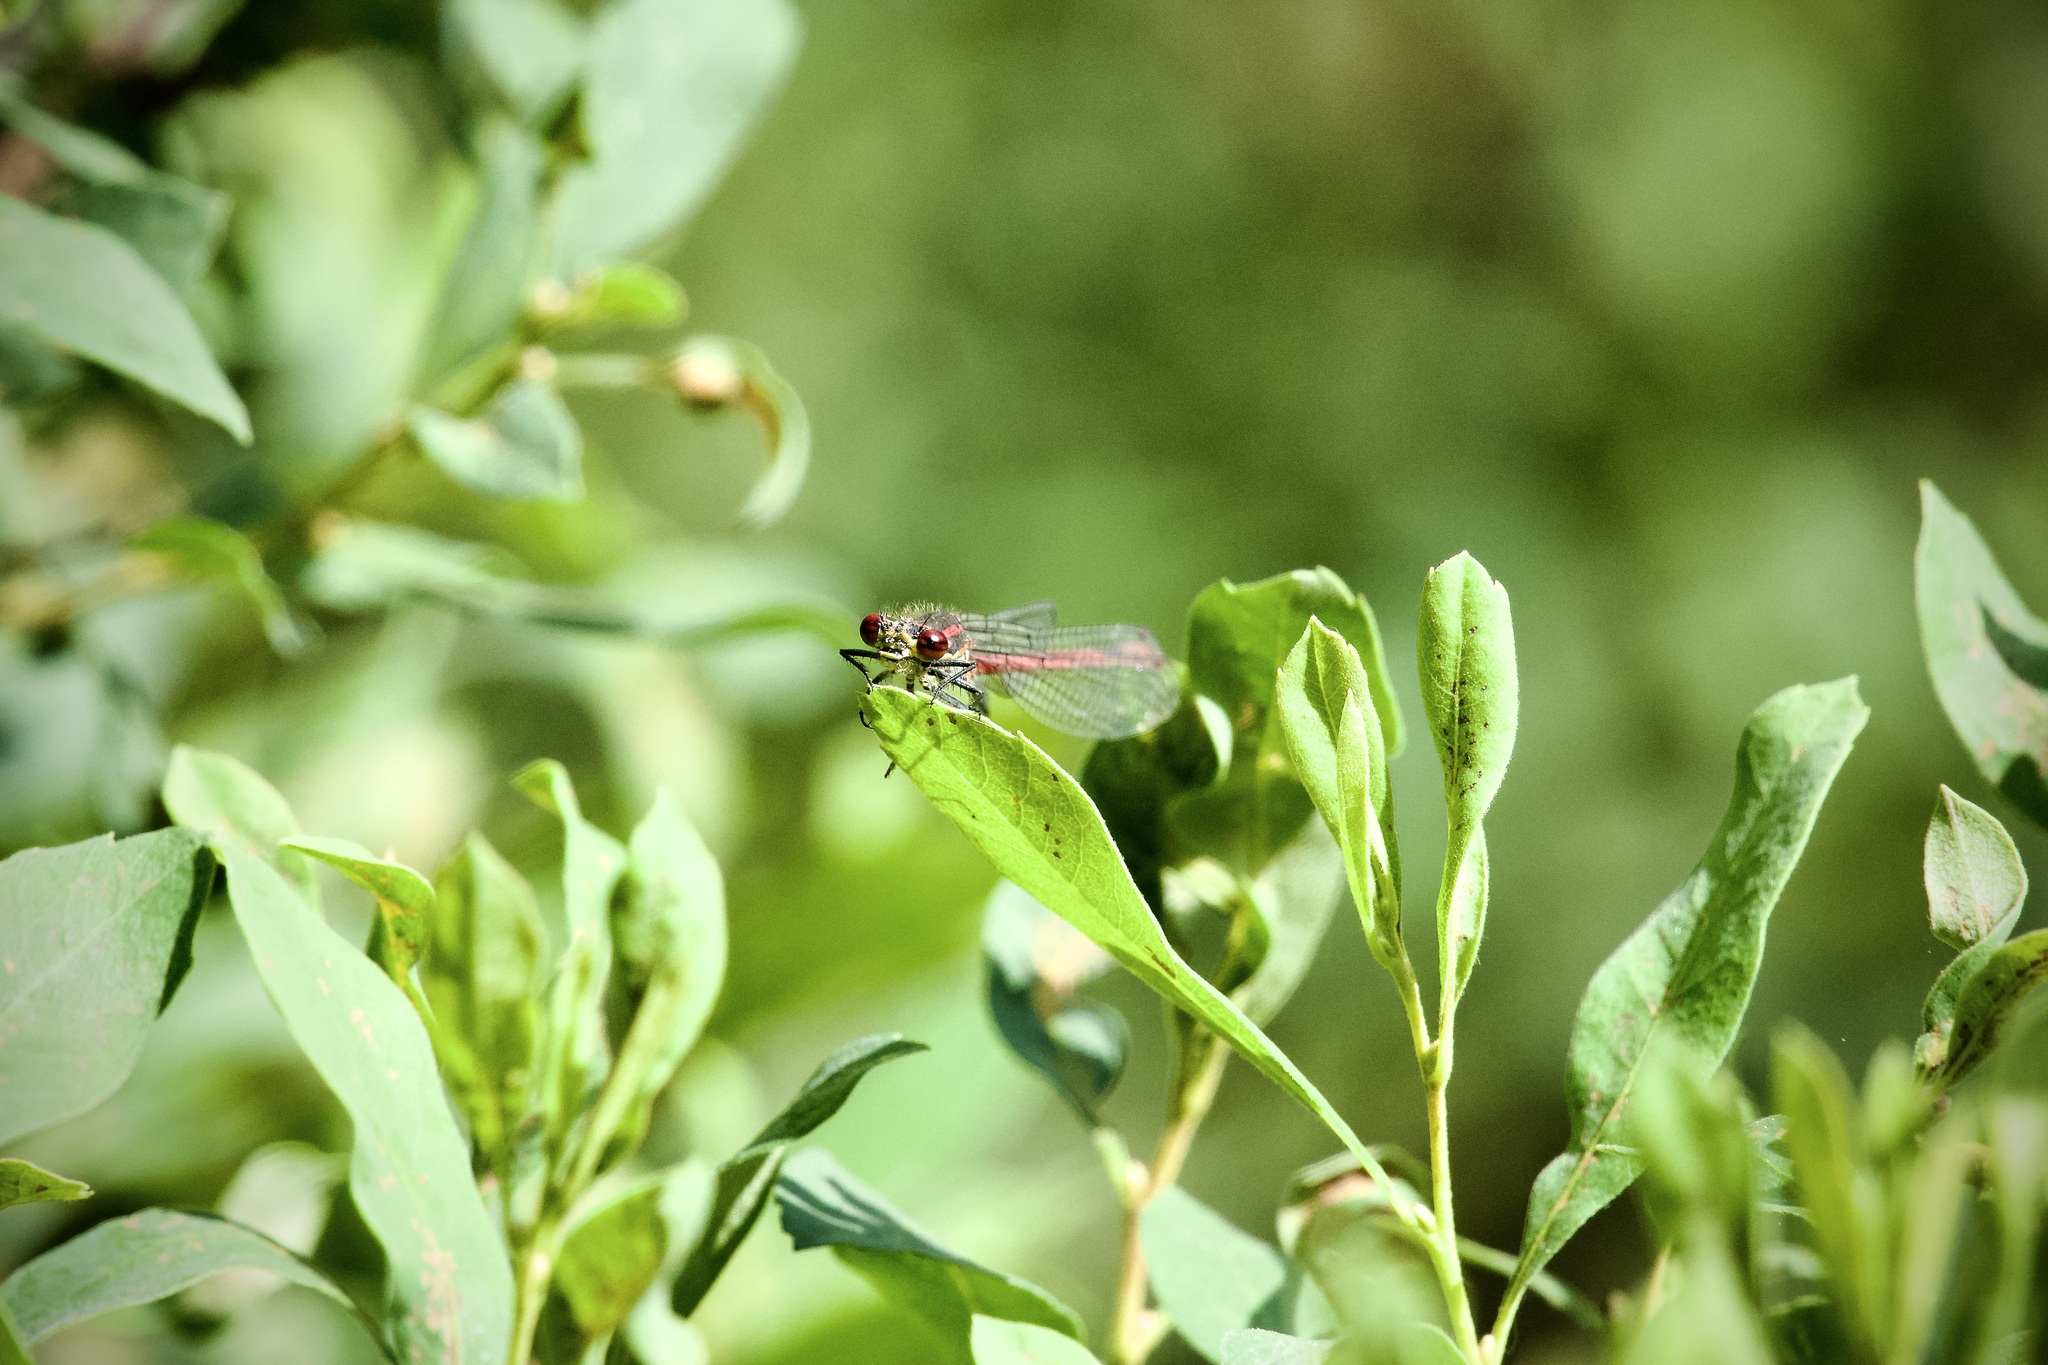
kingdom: Animalia
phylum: Arthropoda
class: Insecta
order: Odonata
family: Coenagrionidae
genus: Pyrrhosoma
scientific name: Pyrrhosoma nymphula
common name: Large red damsel
